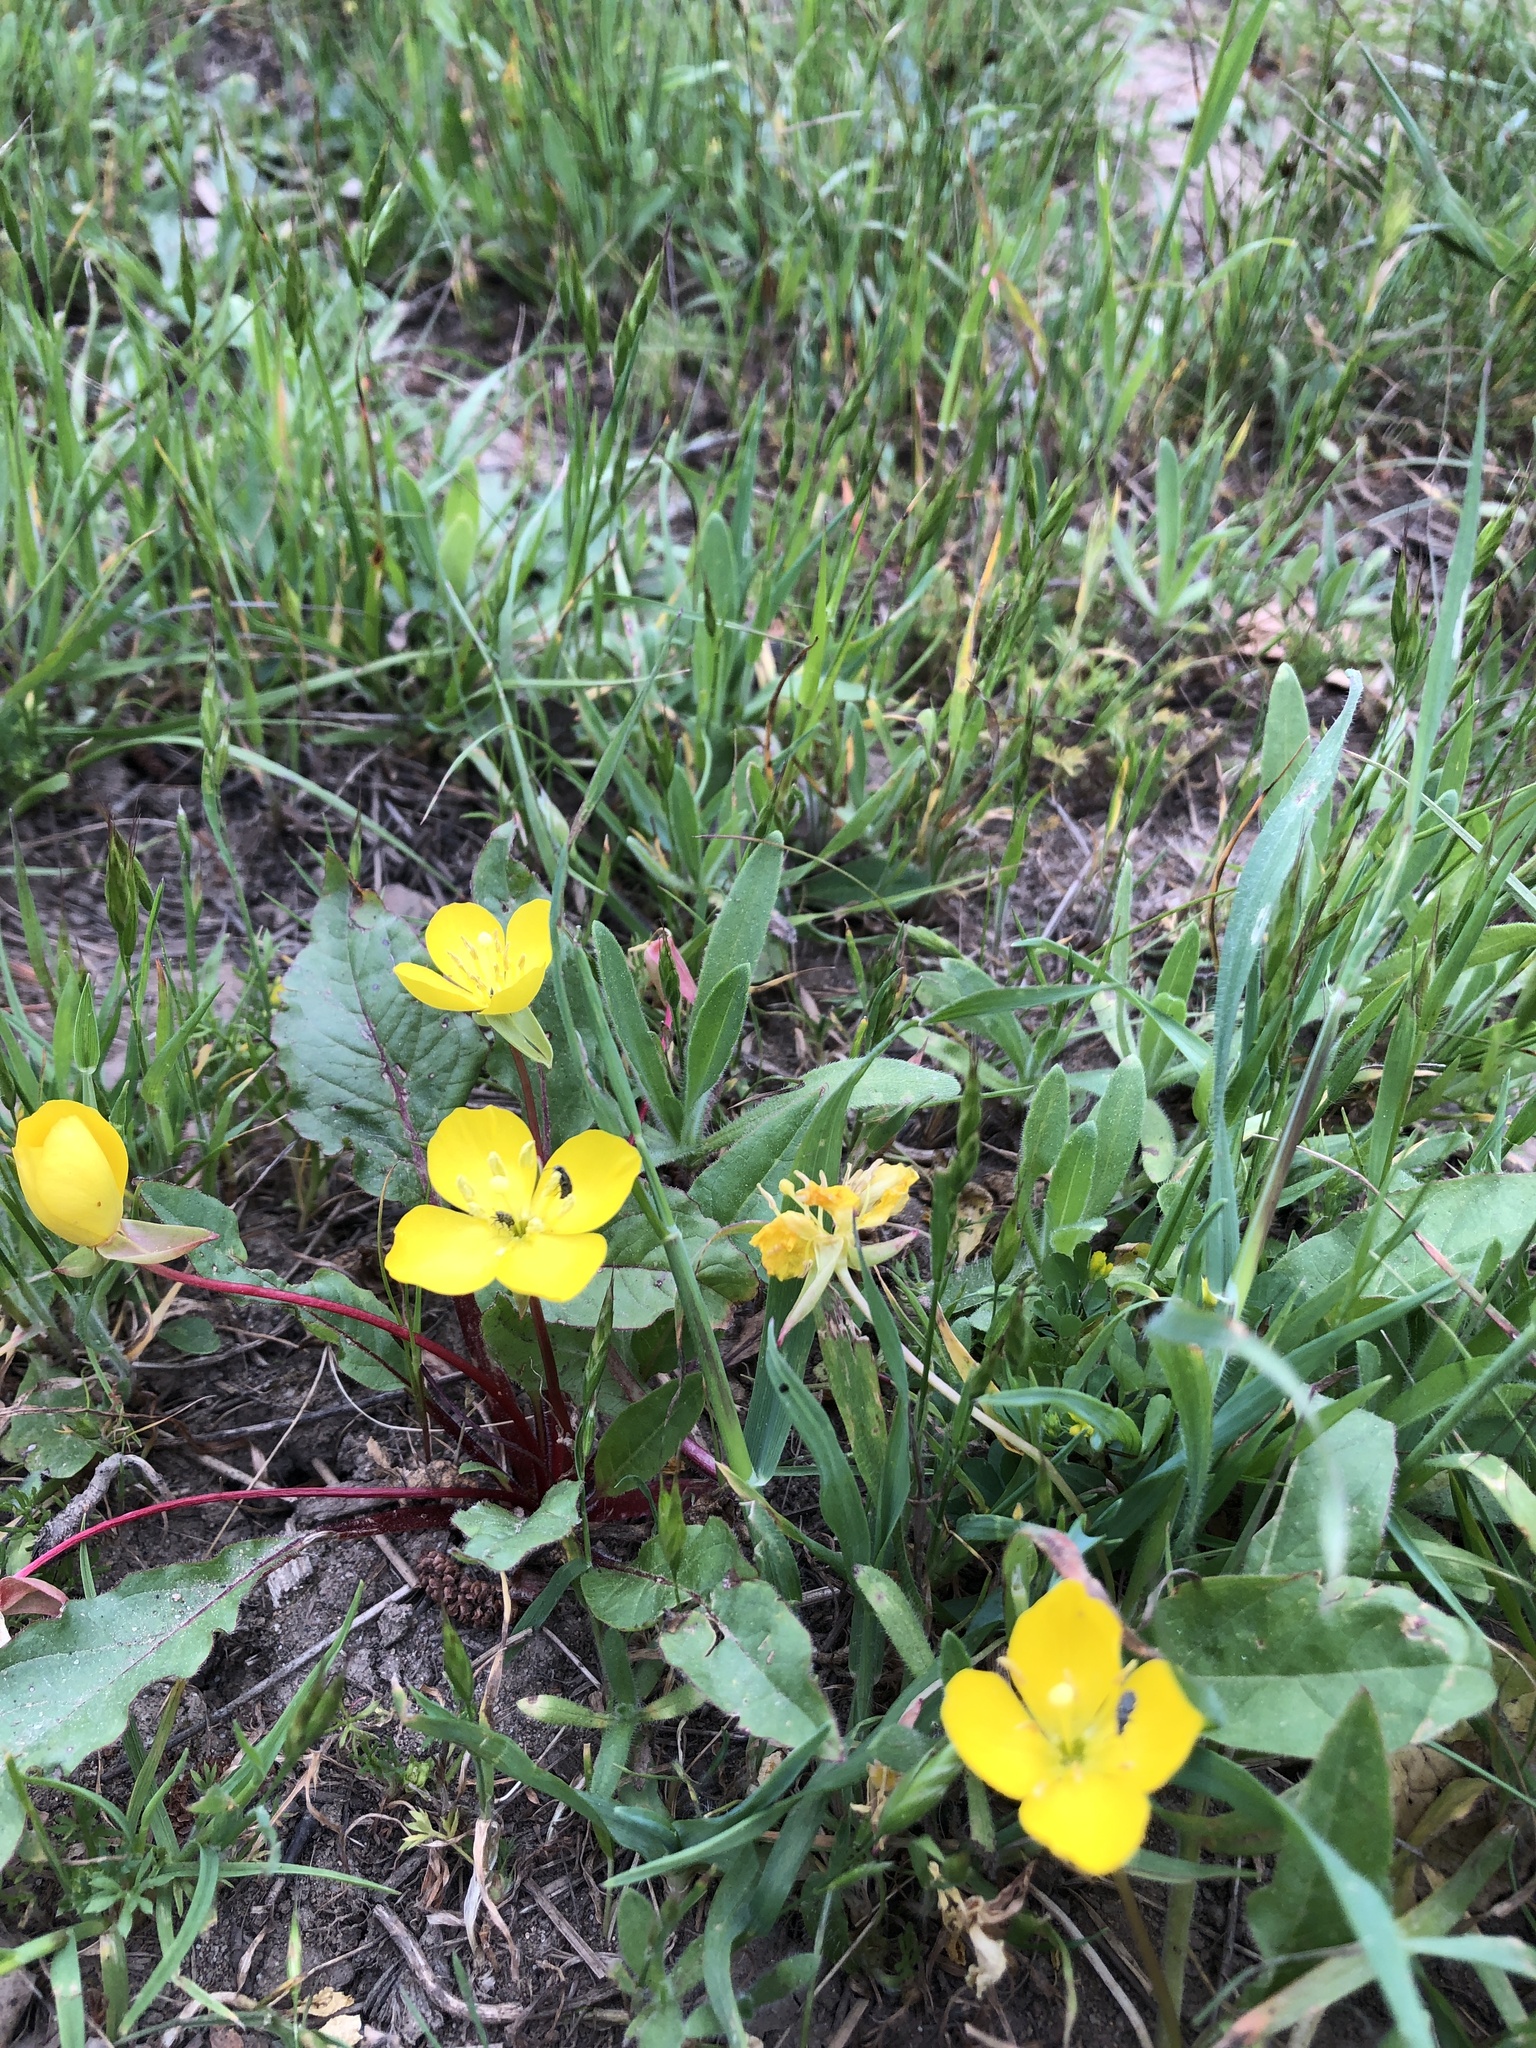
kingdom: Plantae
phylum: Tracheophyta
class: Magnoliopsida
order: Myrtales
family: Onagraceae
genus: Taraxia
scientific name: Taraxia ovata
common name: Goldeneggs
